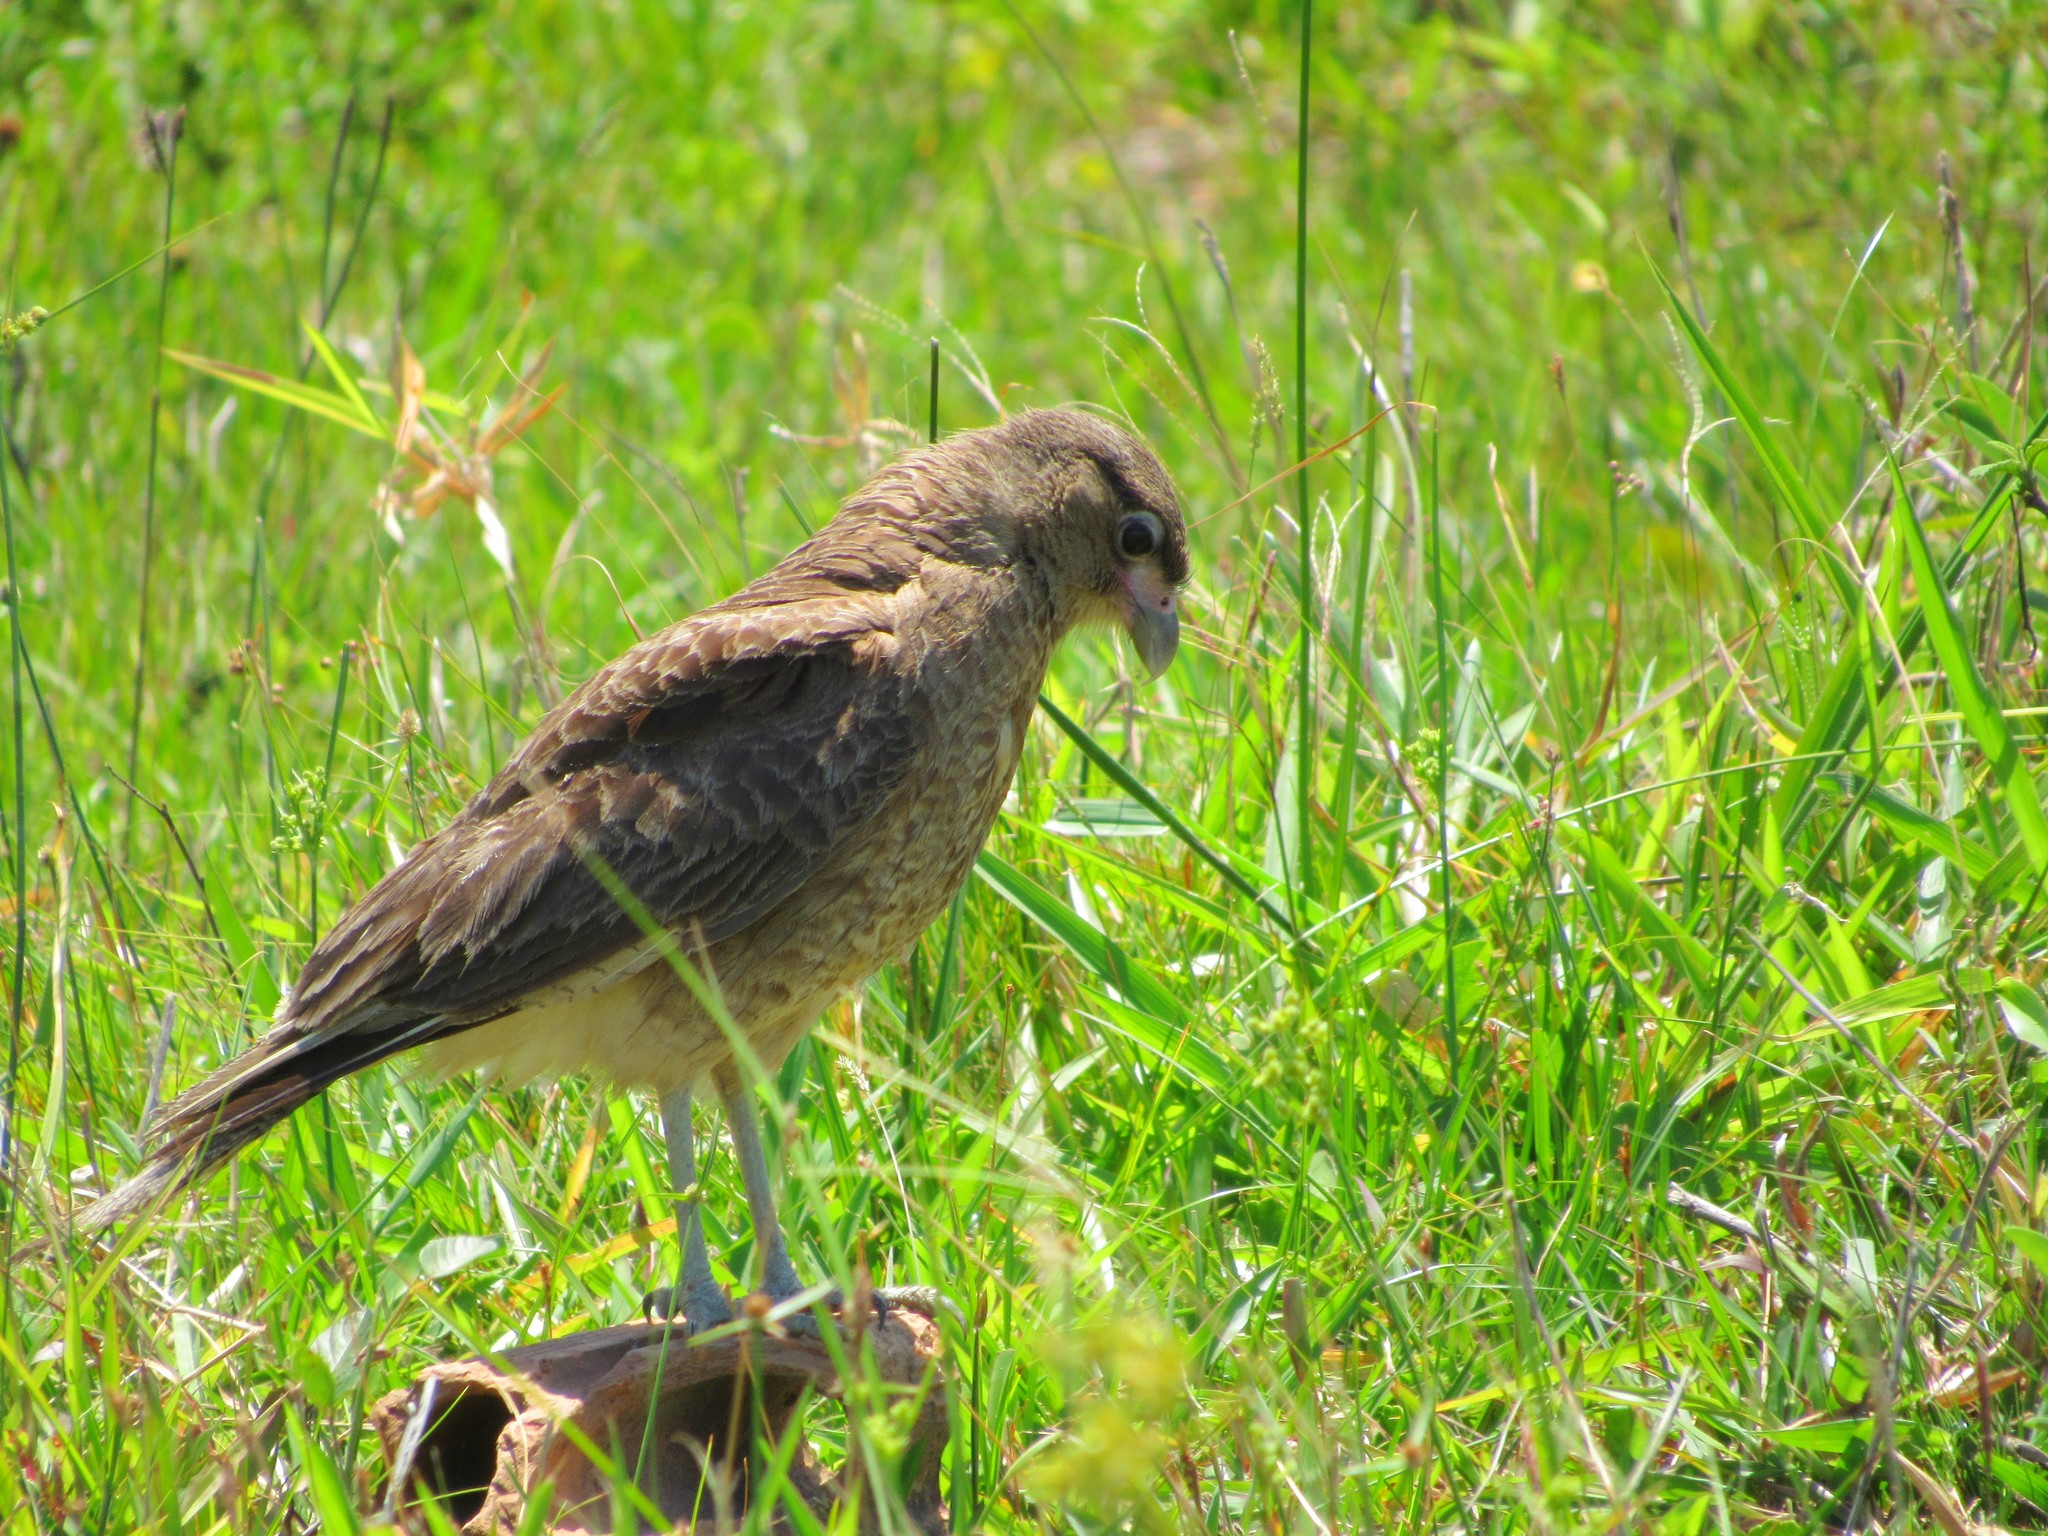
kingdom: Animalia
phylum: Chordata
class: Aves
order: Falconiformes
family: Falconidae
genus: Daptrius
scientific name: Daptrius
